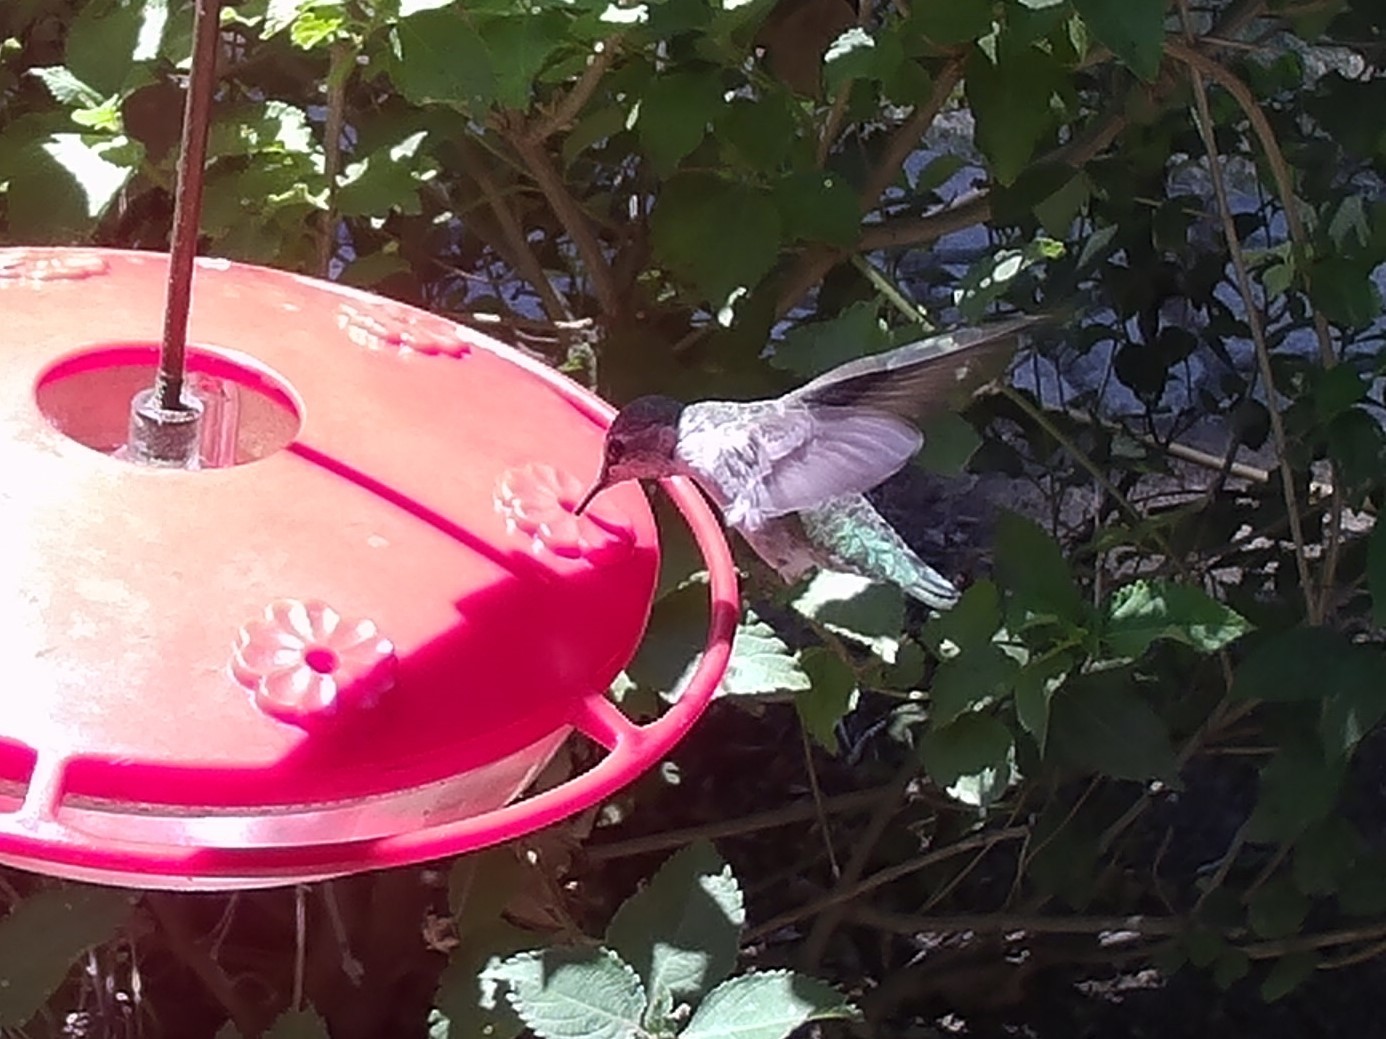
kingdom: Animalia
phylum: Chordata
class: Aves
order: Apodiformes
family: Trochilidae
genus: Calypte
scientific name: Calypte anna
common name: Anna's hummingbird
